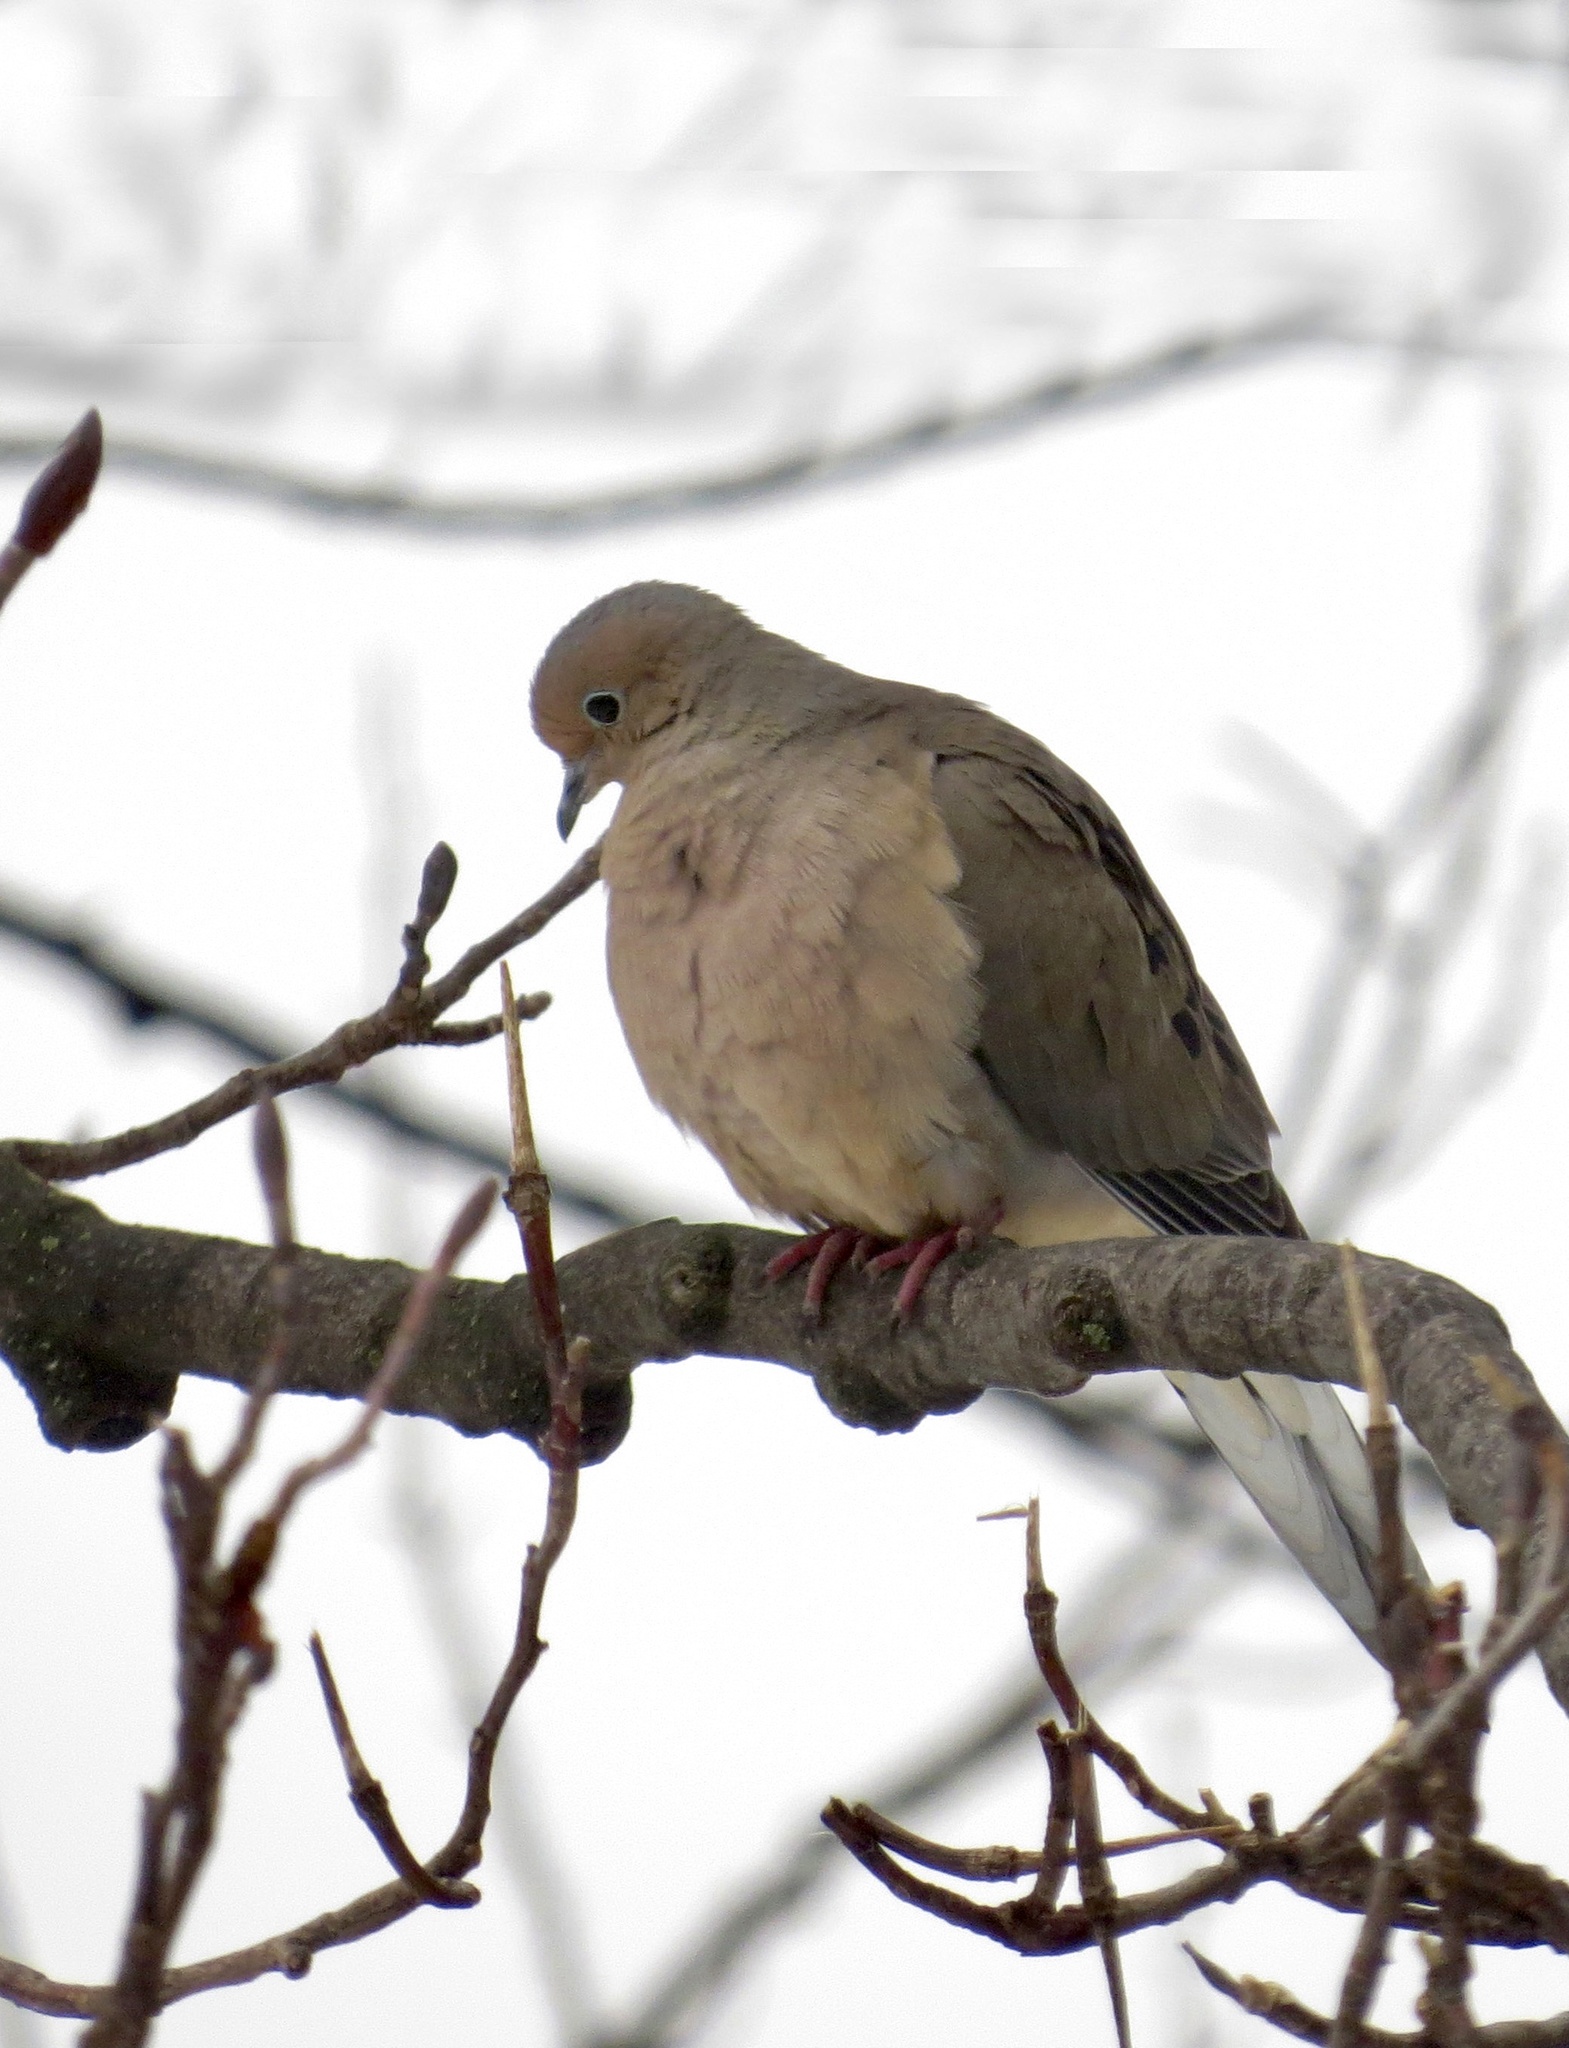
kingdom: Animalia
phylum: Chordata
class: Aves
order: Columbiformes
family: Columbidae
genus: Zenaida
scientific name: Zenaida macroura
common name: Mourning dove
